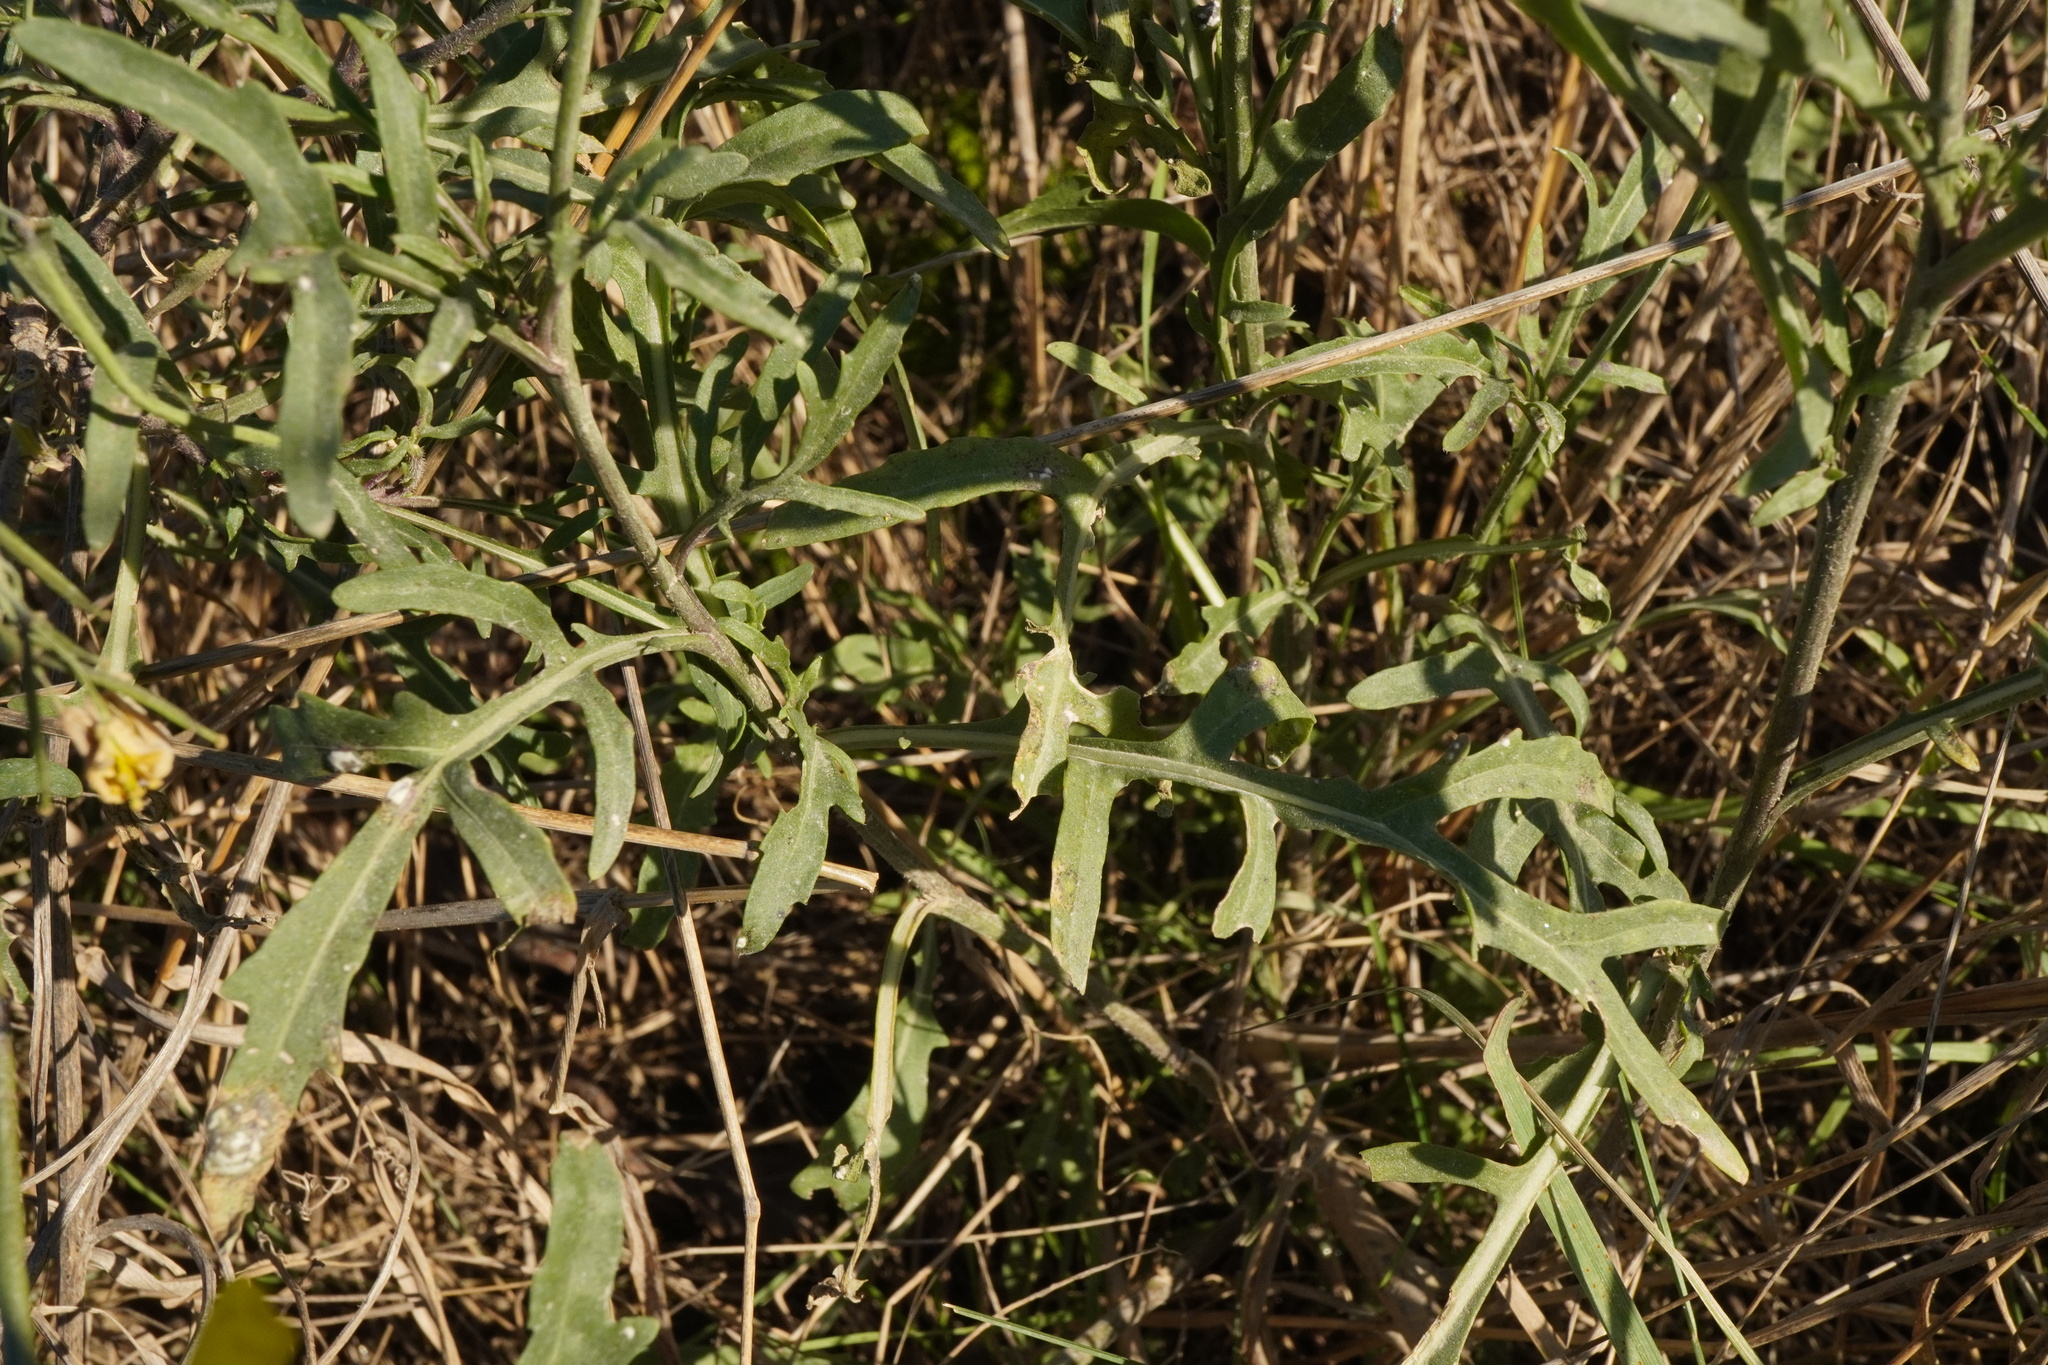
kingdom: Plantae
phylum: Tracheophyta
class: Magnoliopsida
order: Brassicales
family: Brassicaceae
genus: Diplotaxis
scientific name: Diplotaxis tenuifolia
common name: Perennial wall-rocket
